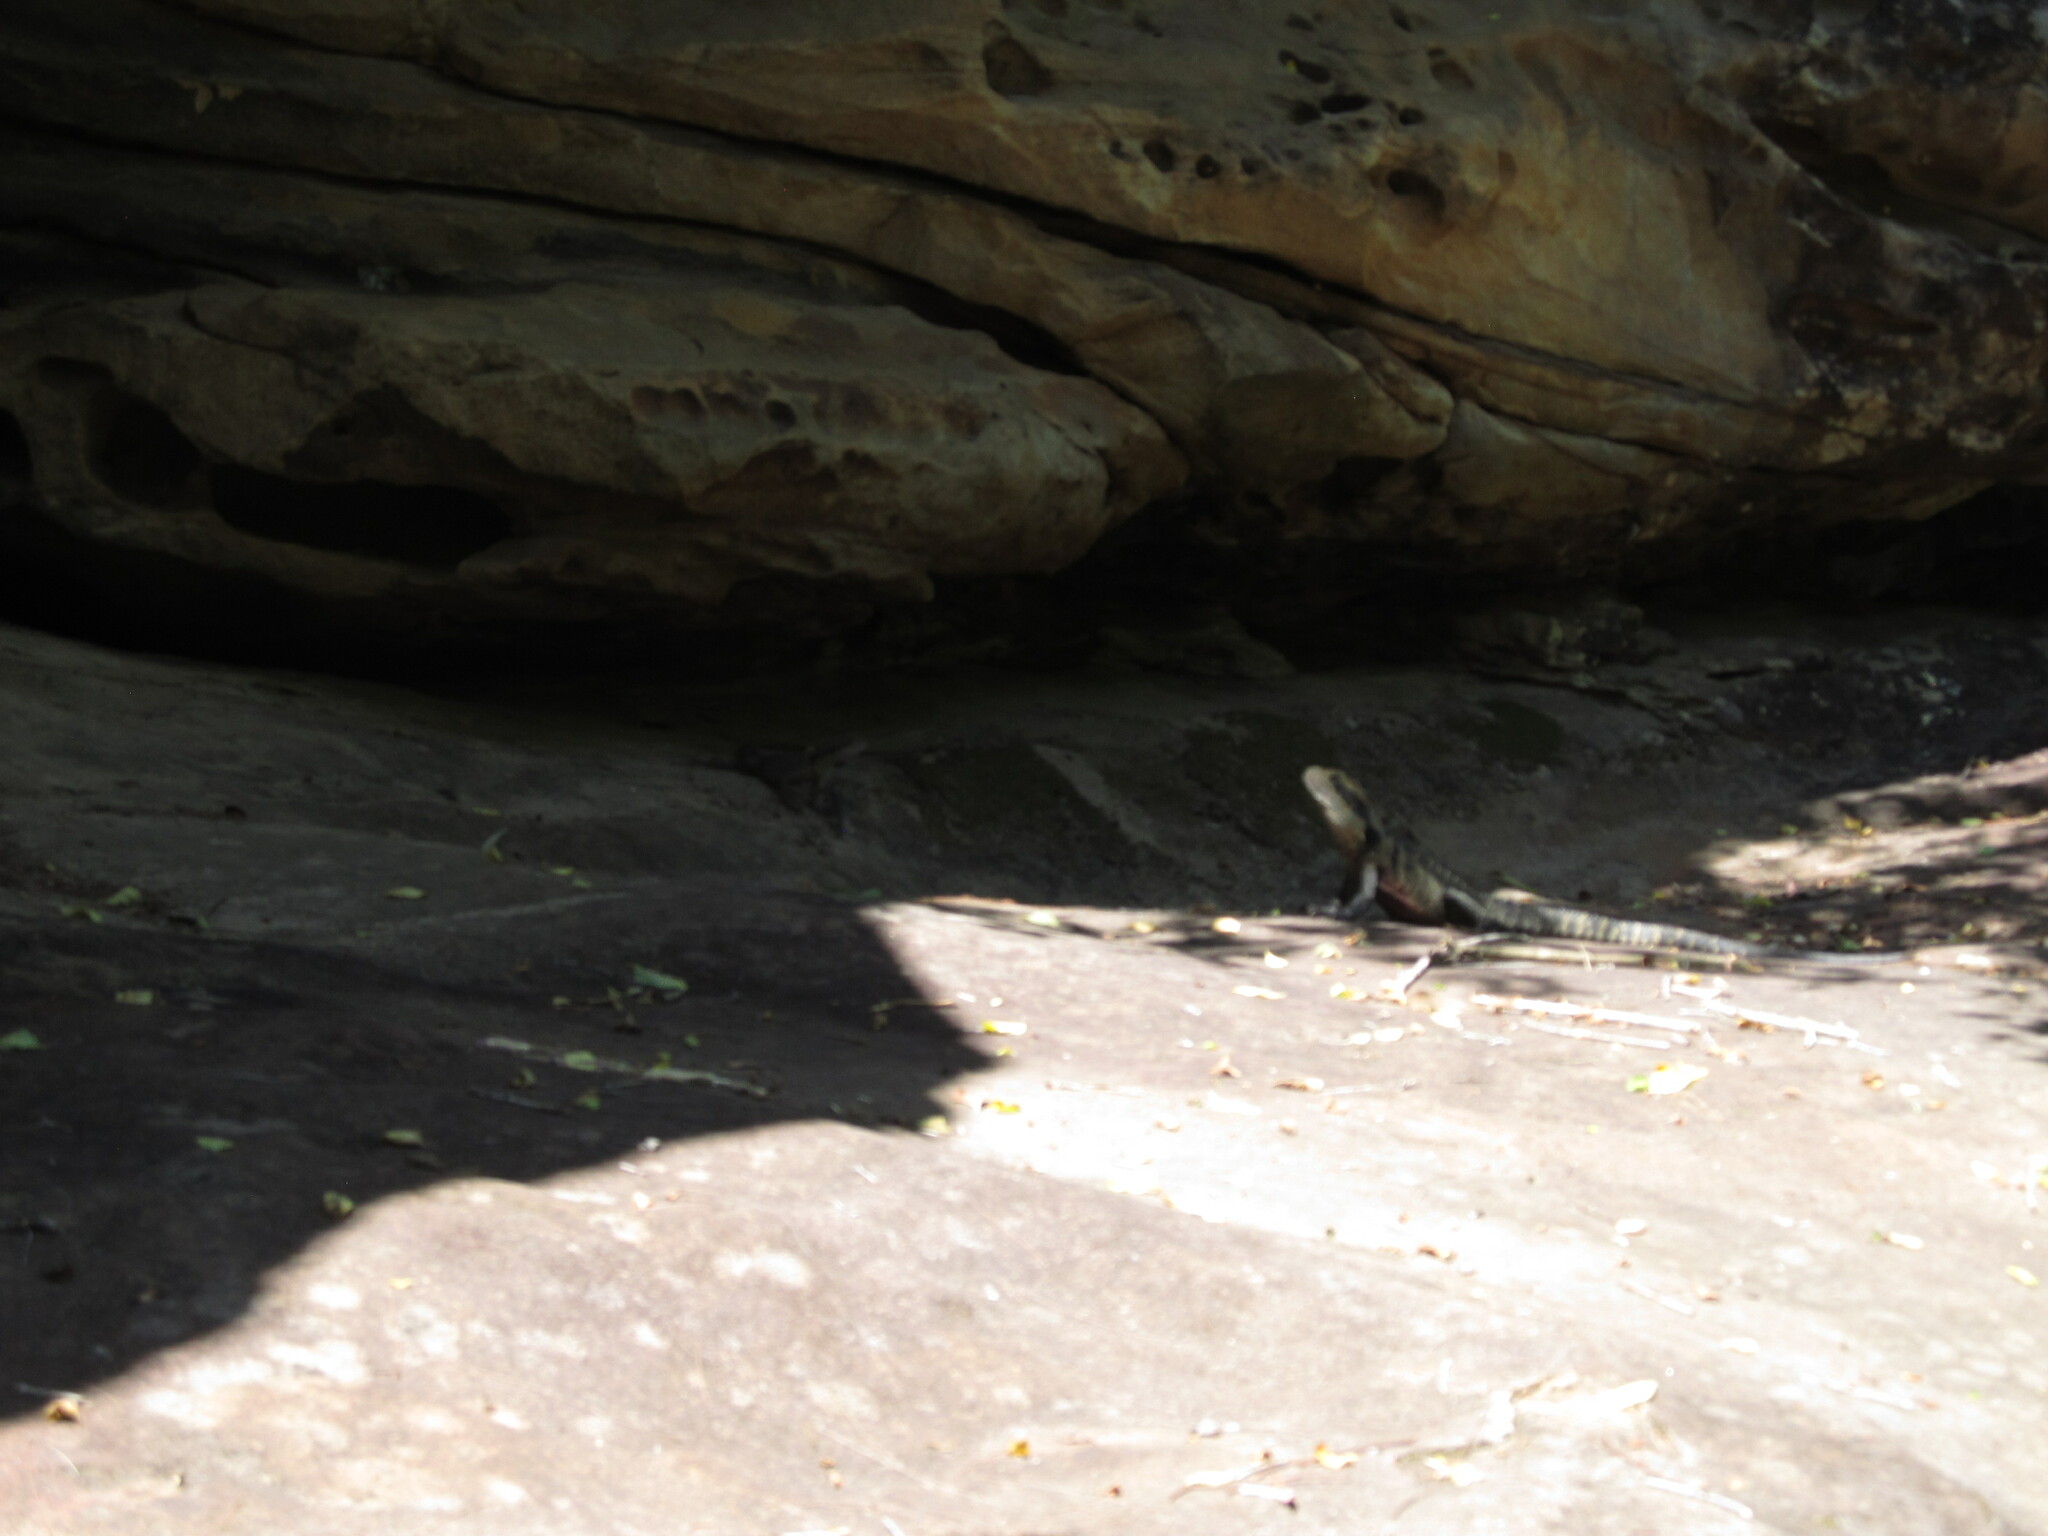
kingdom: Animalia
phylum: Chordata
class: Squamata
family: Agamidae
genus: Intellagama
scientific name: Intellagama lesueurii
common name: Eastern water dragon
